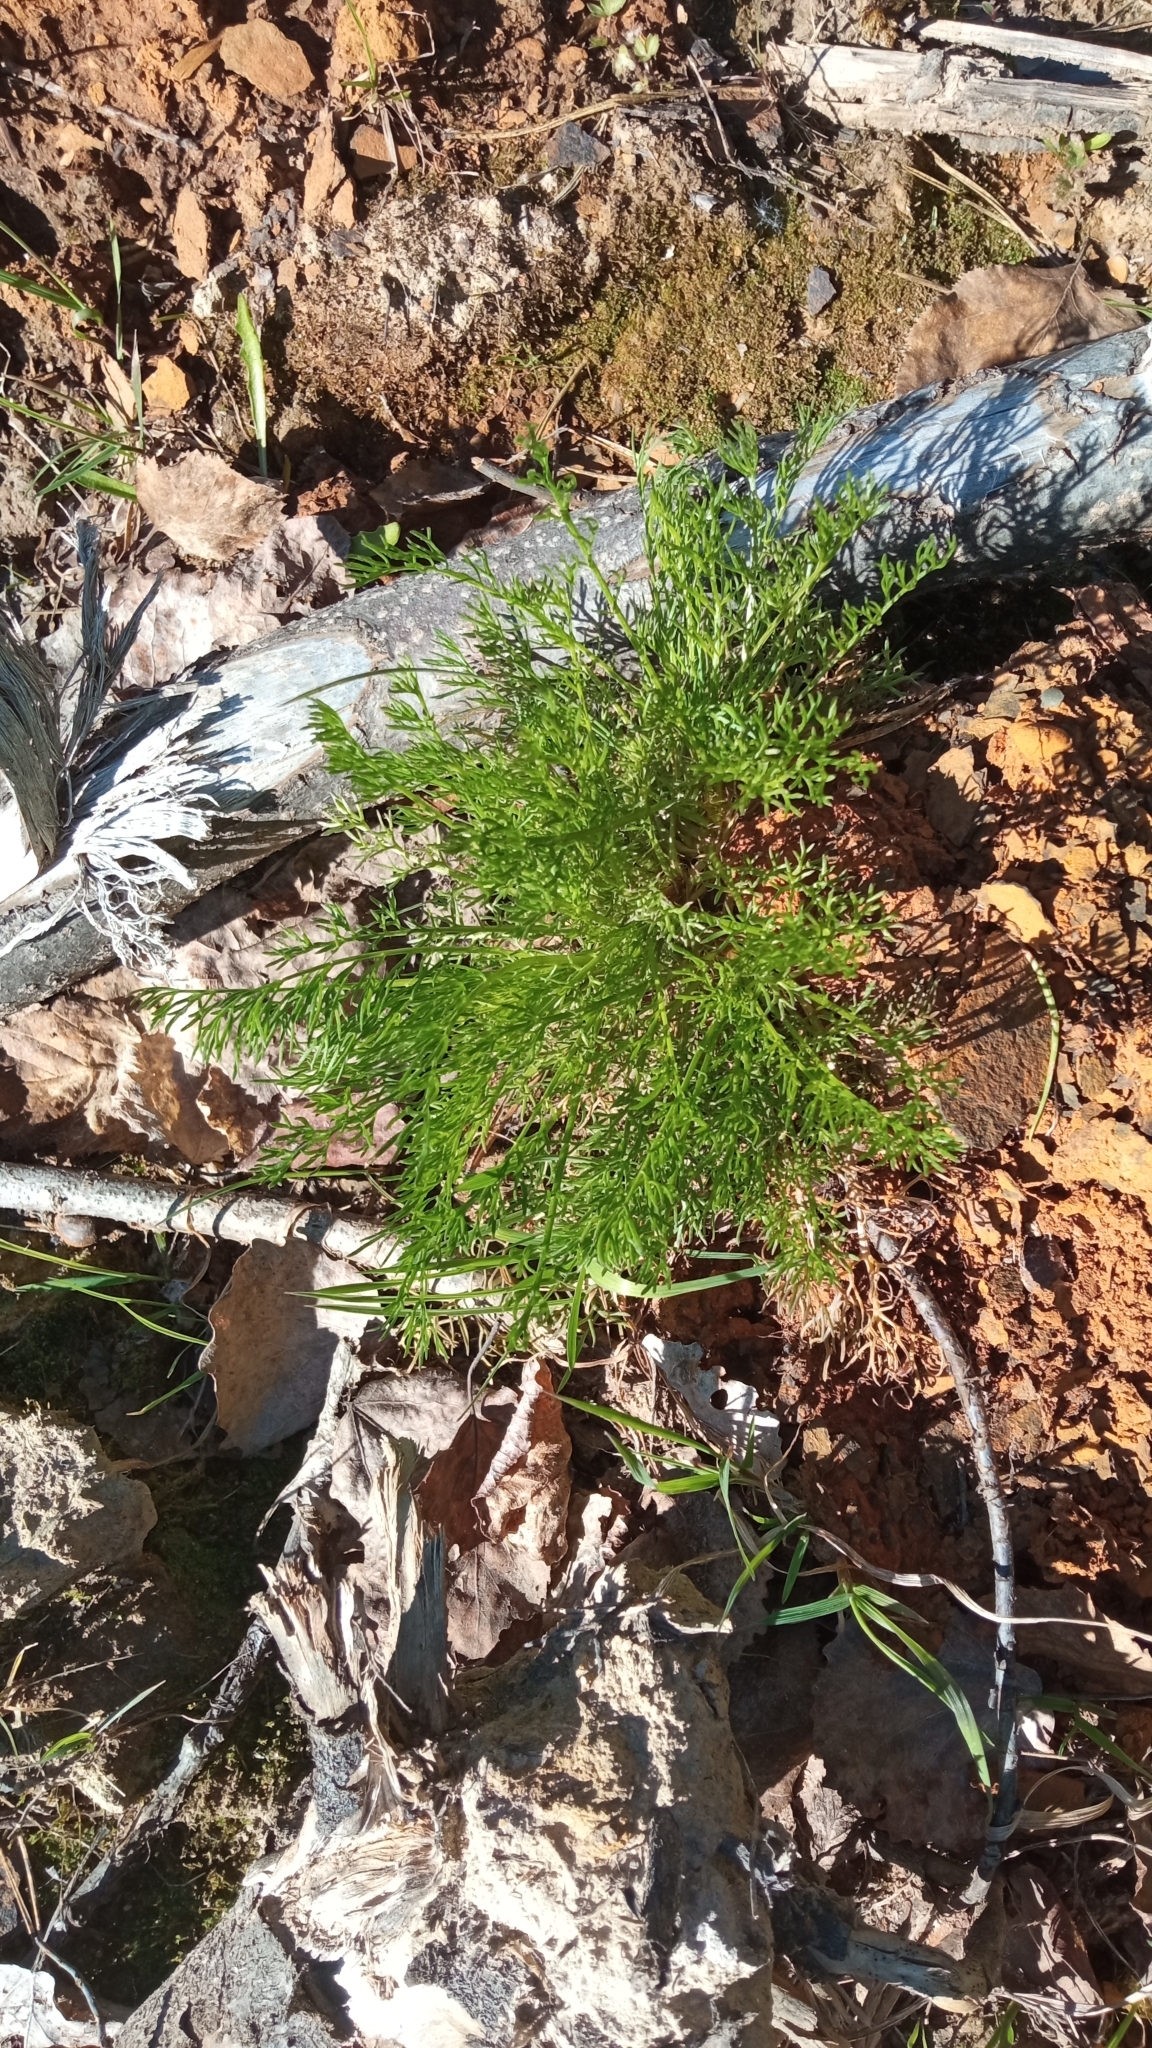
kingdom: Plantae
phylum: Tracheophyta
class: Magnoliopsida
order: Asterales
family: Asteraceae
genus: Tripleurospermum
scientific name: Tripleurospermum inodorum
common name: Scentless mayweed
